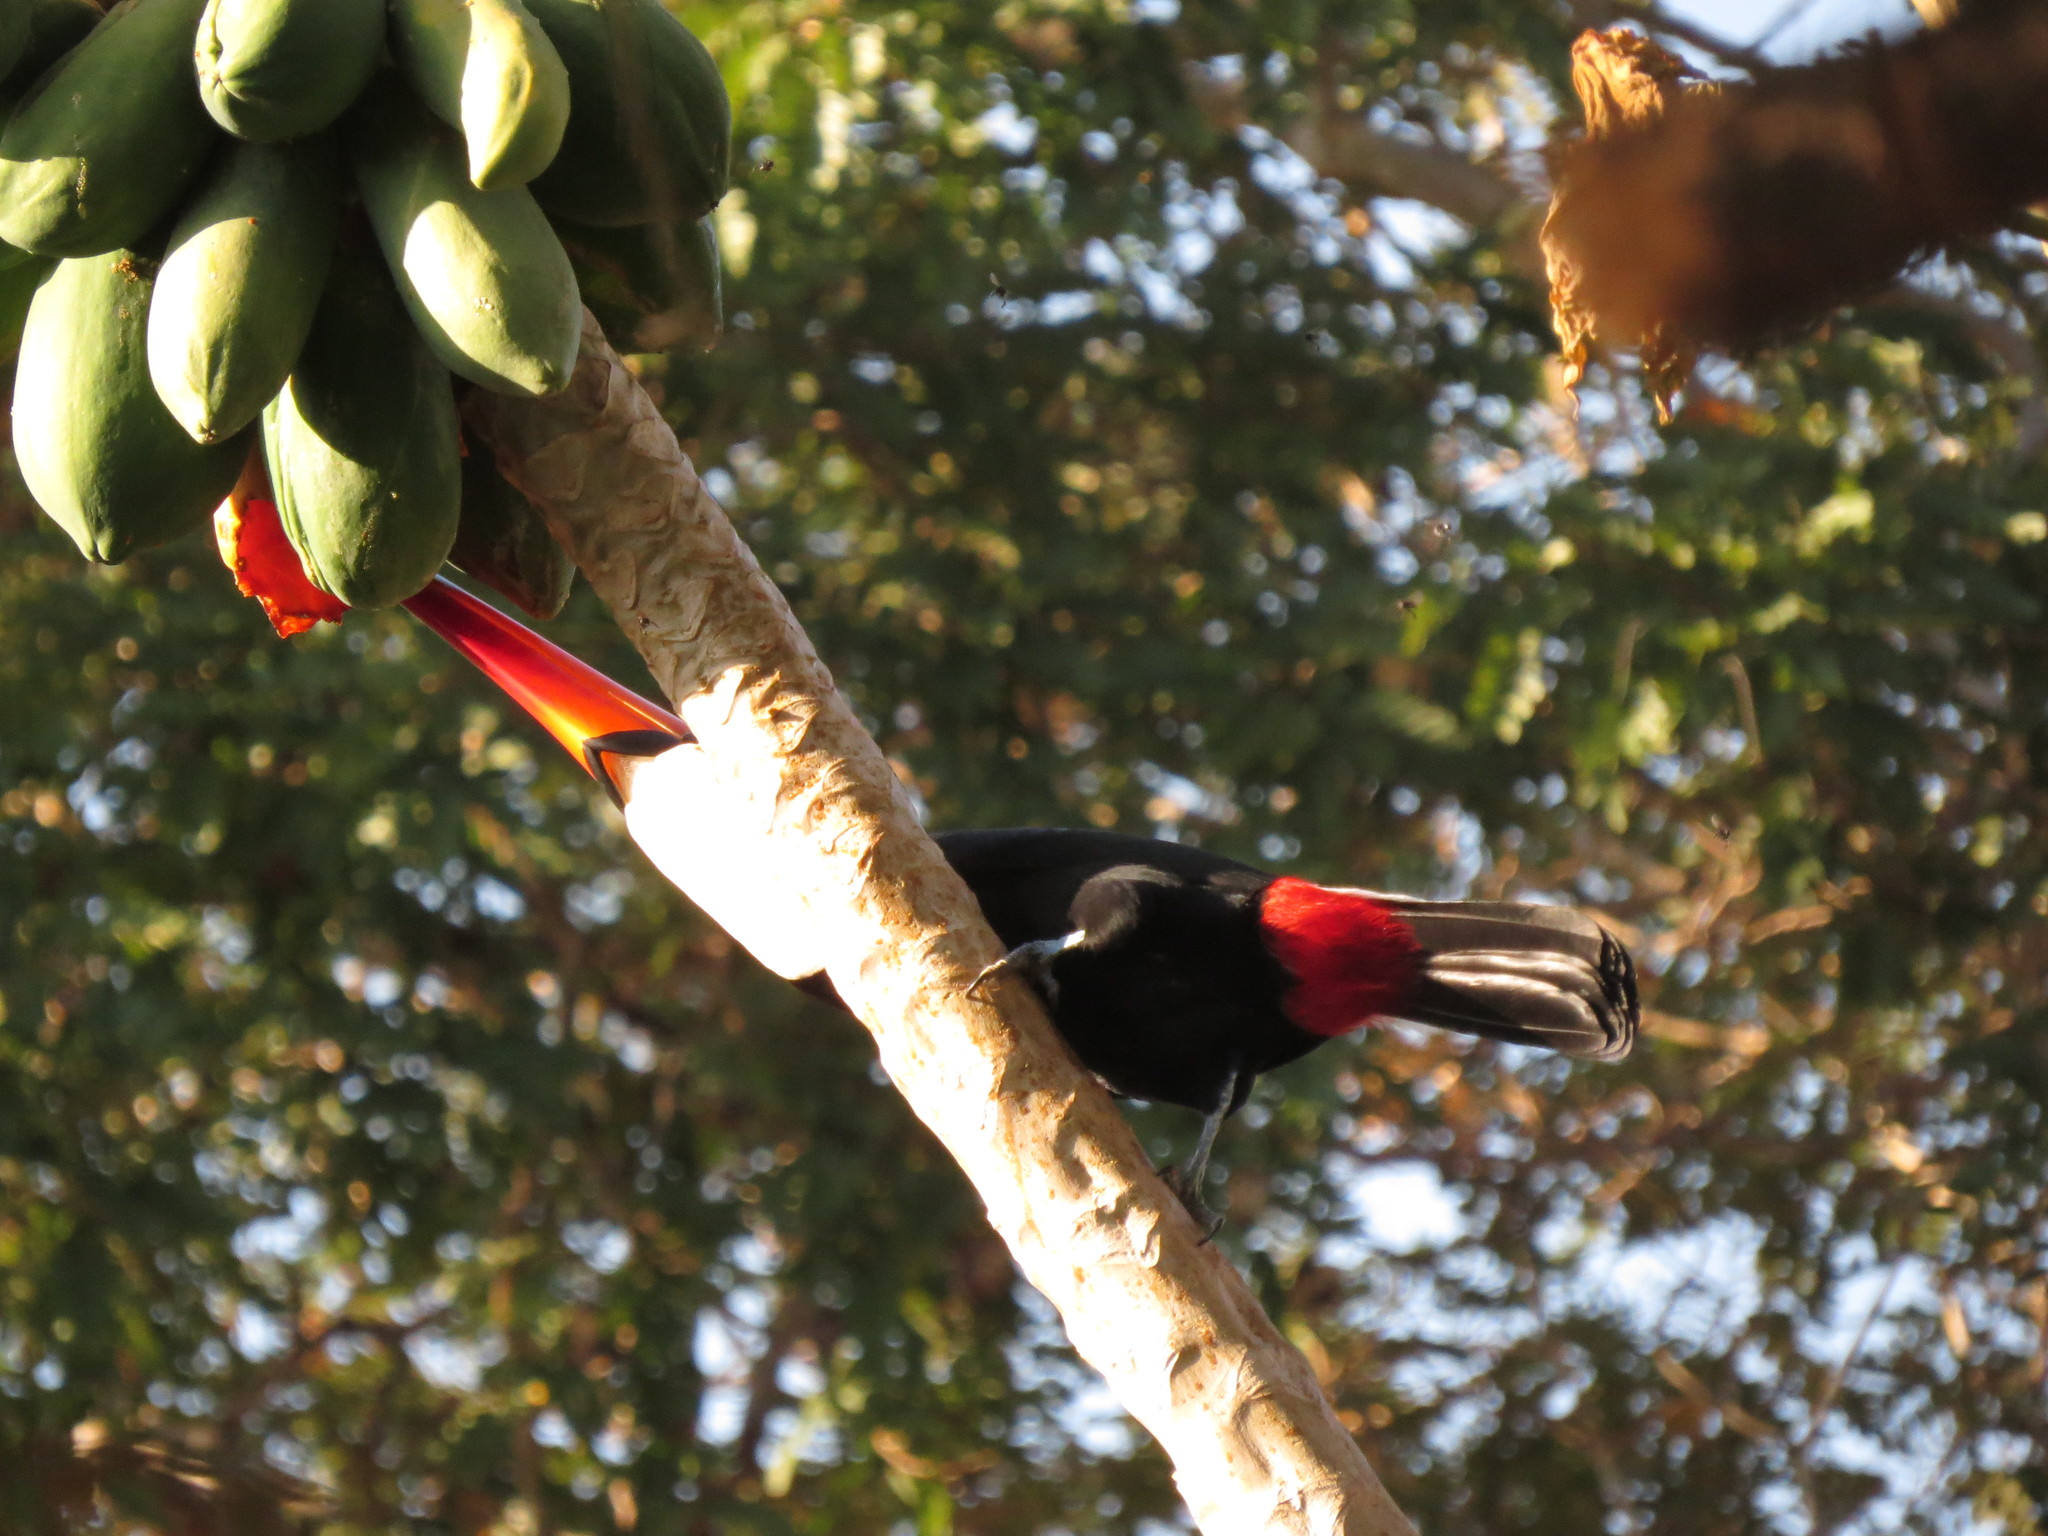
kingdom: Animalia
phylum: Chordata
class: Aves
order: Piciformes
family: Ramphastidae
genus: Ramphastos
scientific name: Ramphastos toco
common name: Toco toucan
